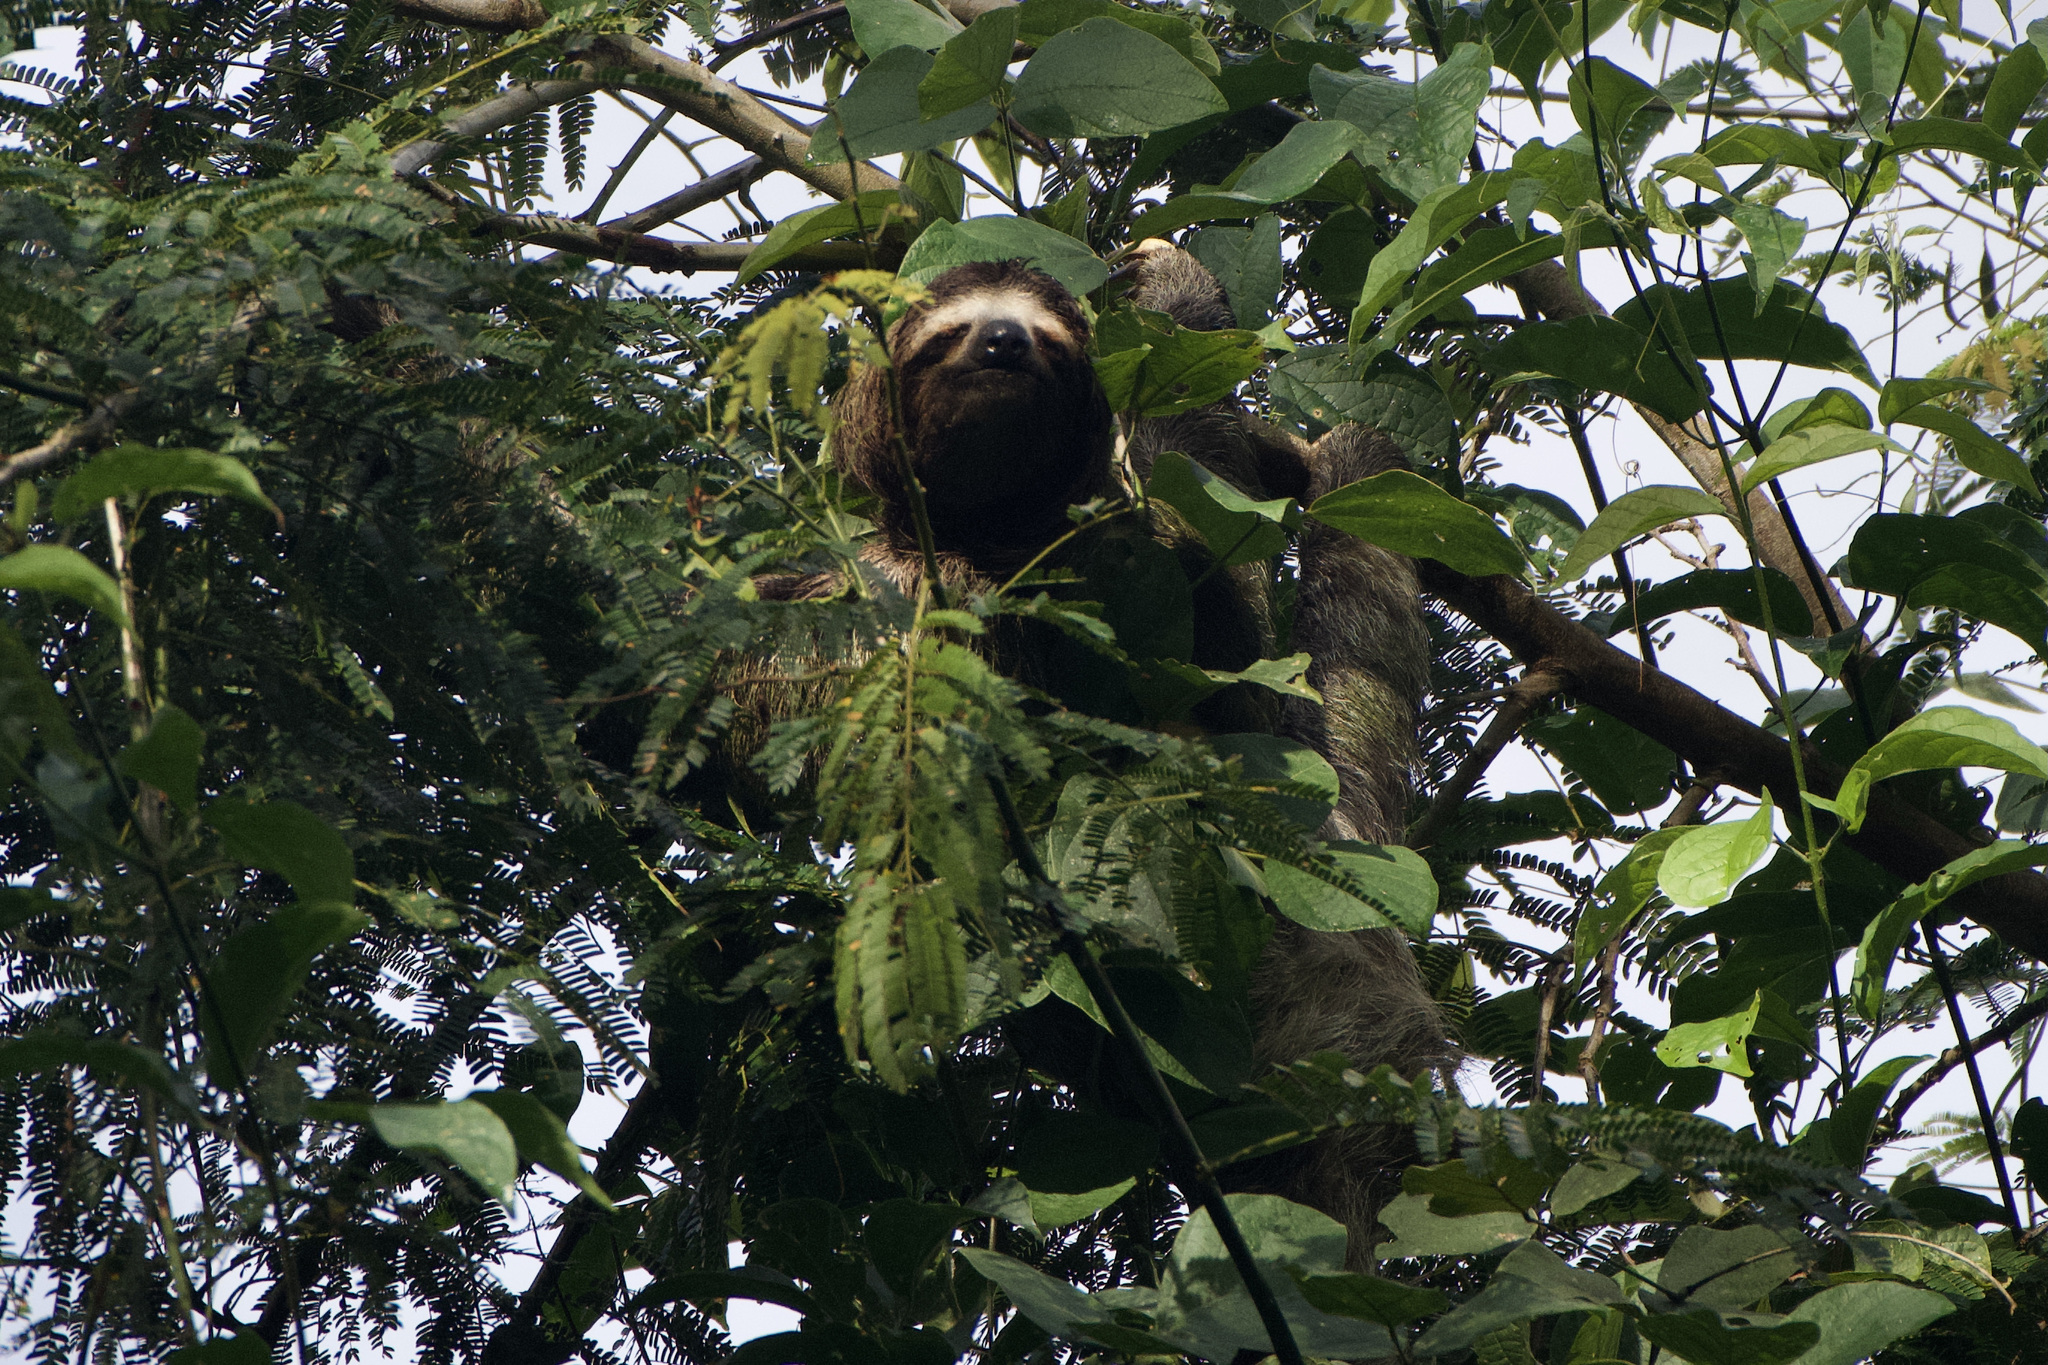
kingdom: Animalia
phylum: Chordata
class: Mammalia
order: Pilosa
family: Bradypodidae
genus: Bradypus
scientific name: Bradypus variegatus
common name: Brown-throated three-toed sloth
